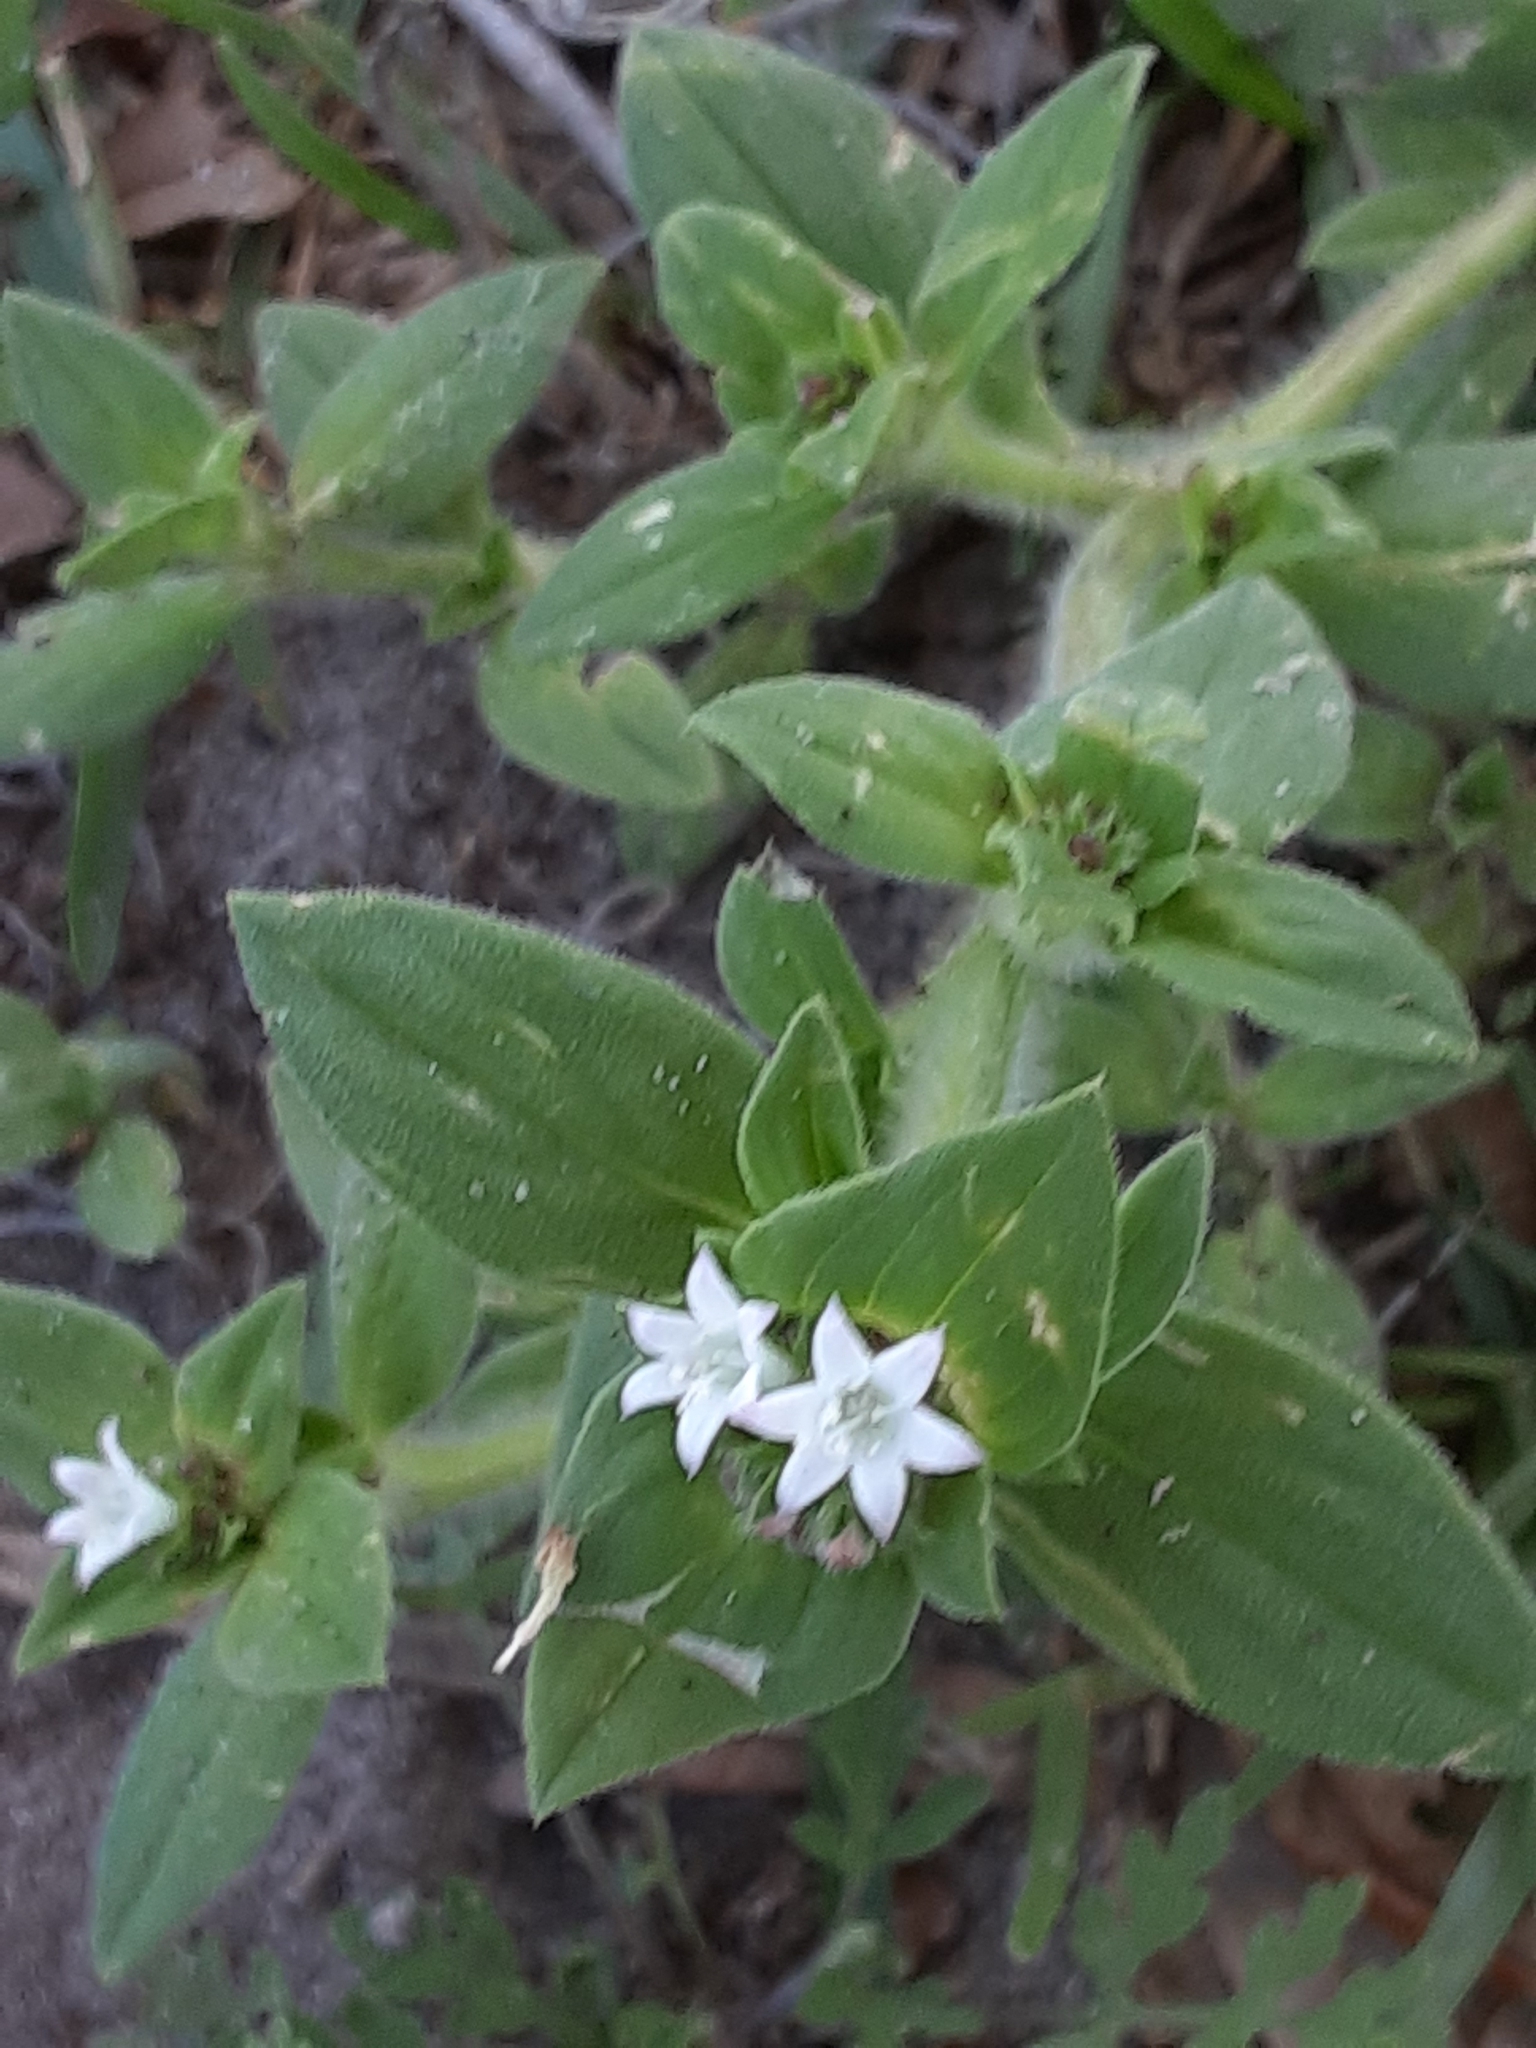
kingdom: Plantae
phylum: Tracheophyta
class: Magnoliopsida
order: Gentianales
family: Rubiaceae
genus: Richardia
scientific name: Richardia scabra
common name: Rough mexican clover
